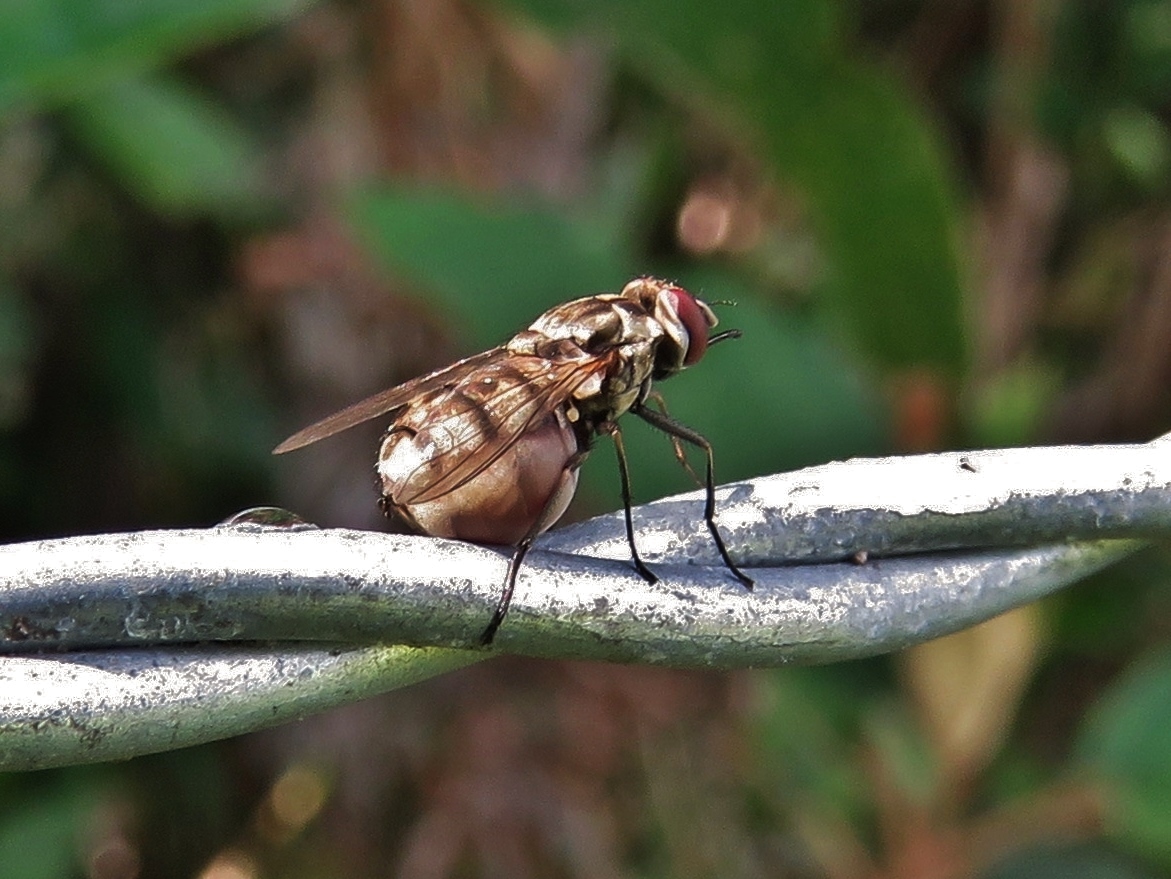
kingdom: Animalia
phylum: Arthropoda
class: Insecta
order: Diptera
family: Muscidae
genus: Stomoxys
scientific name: Stomoxys calcitrans
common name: Stable fly
